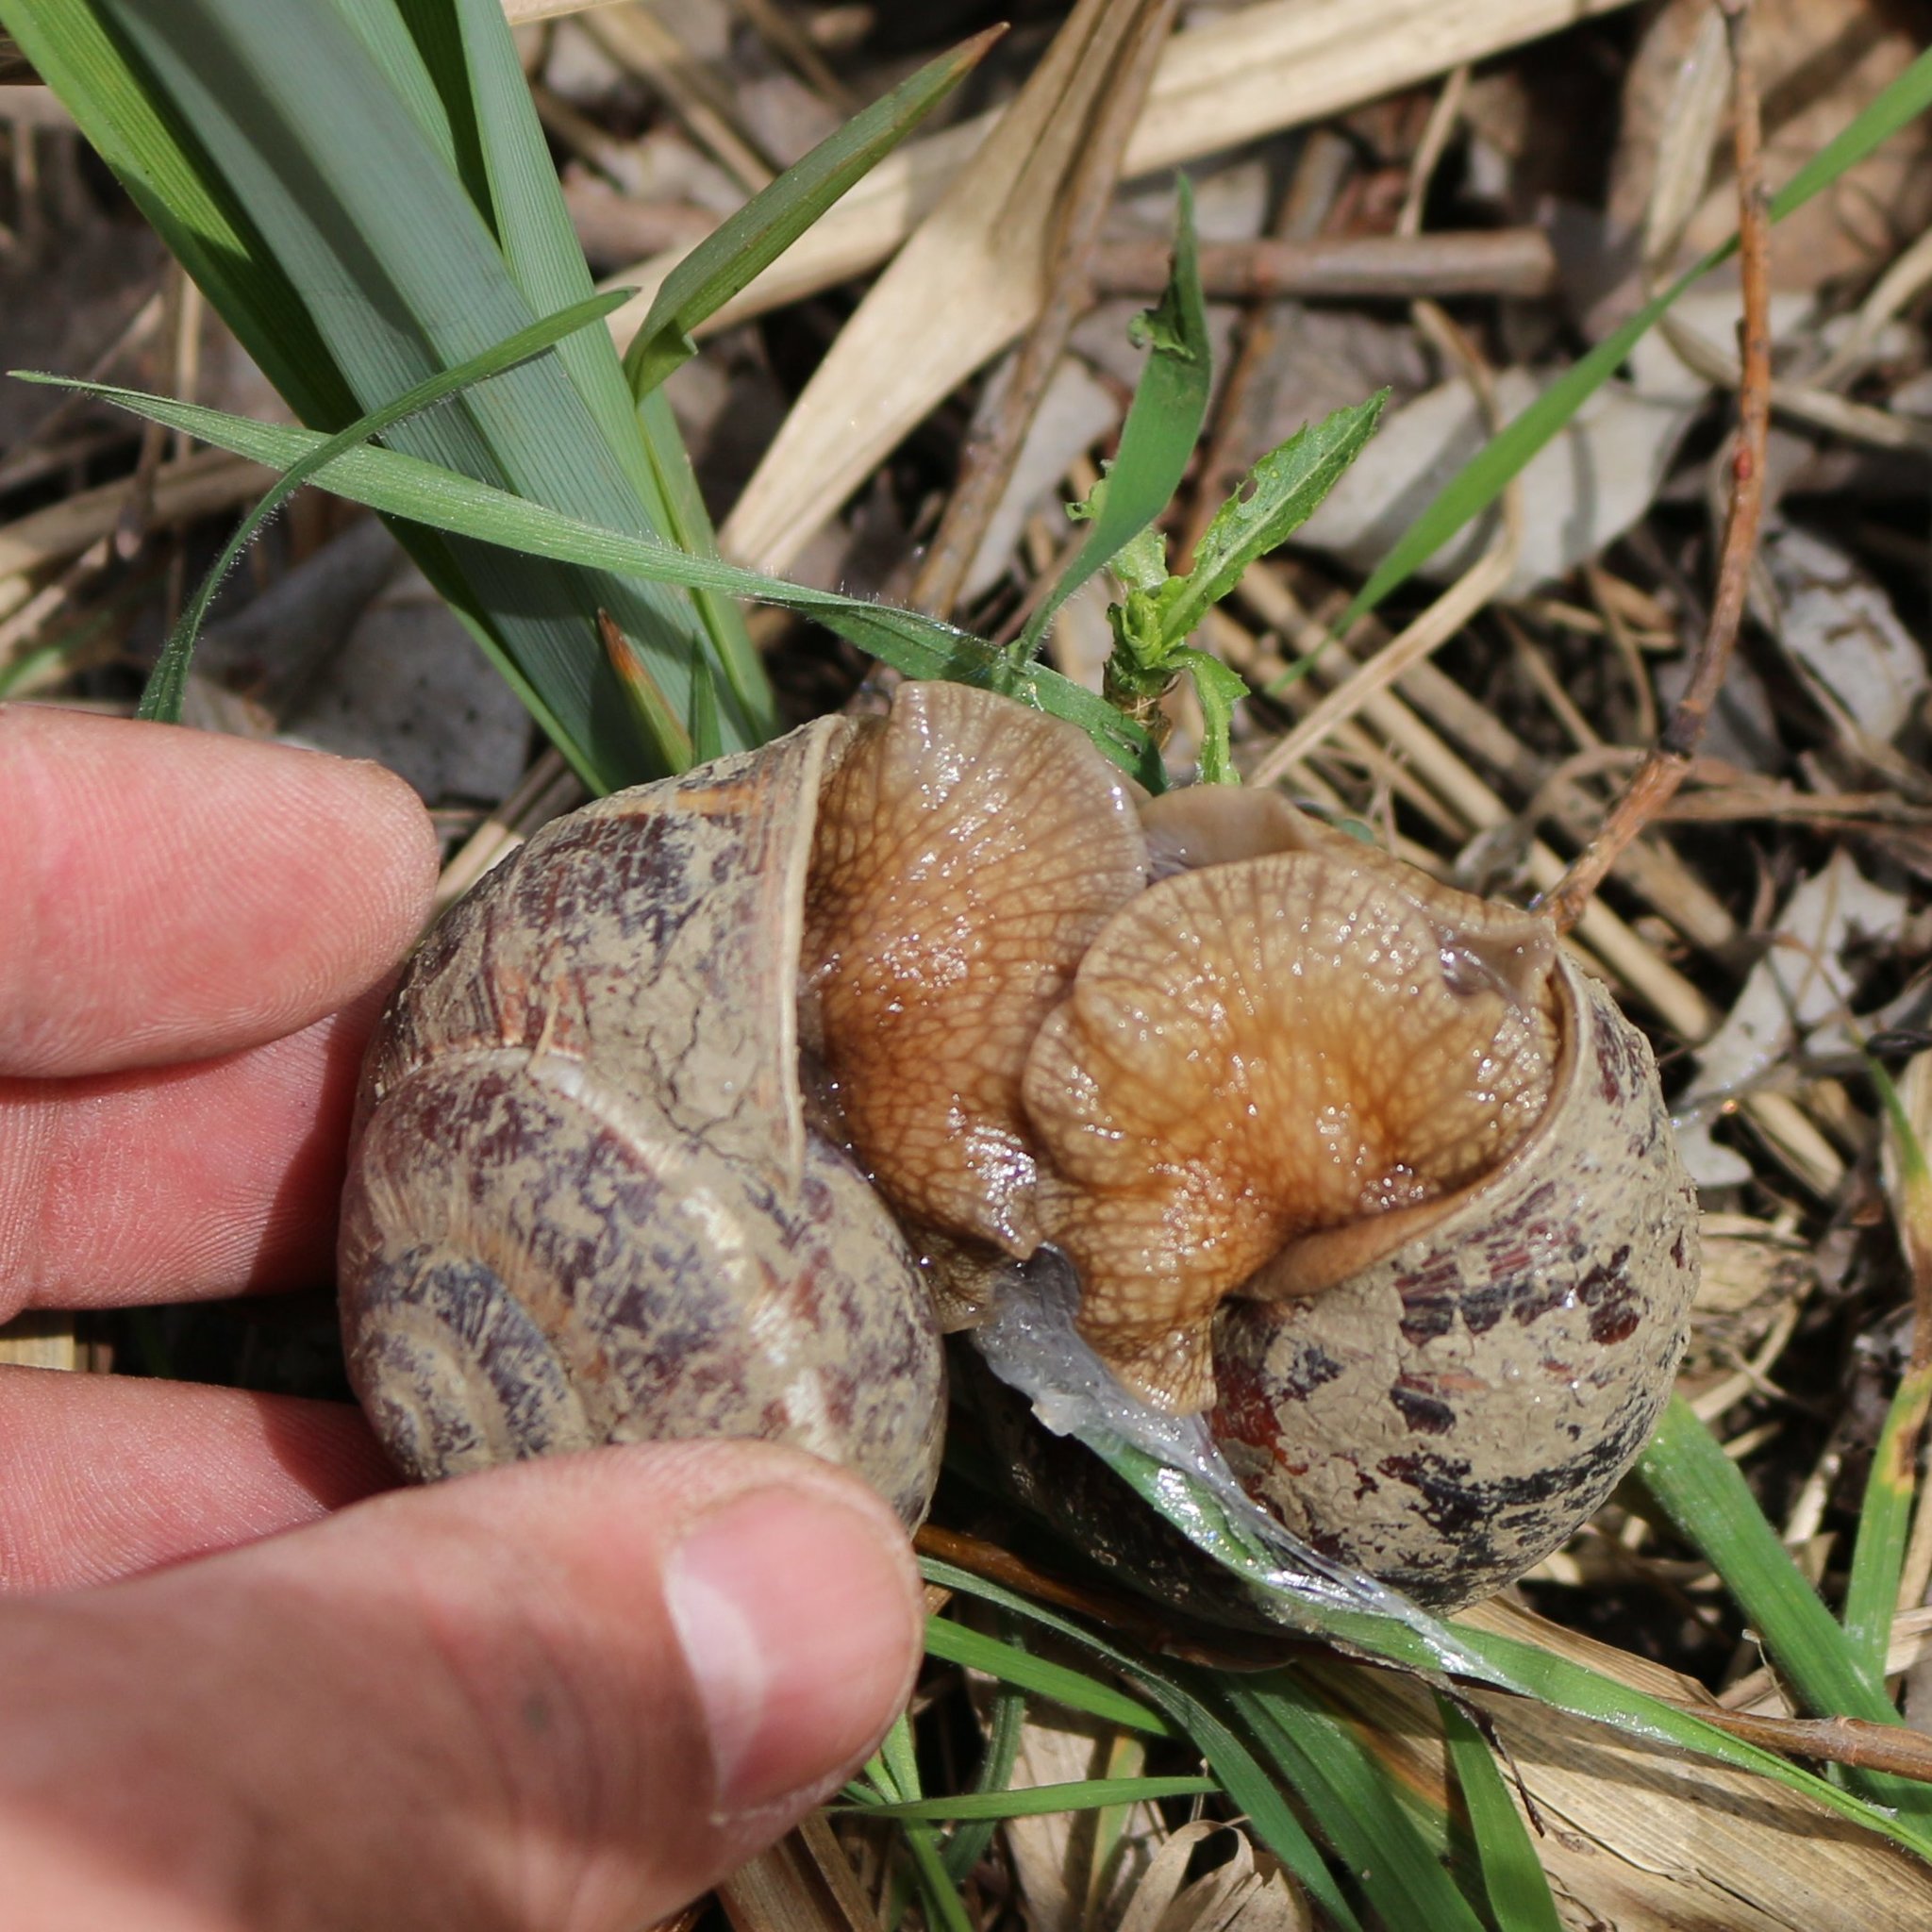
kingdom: Animalia
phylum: Mollusca
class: Gastropoda
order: Stylommatophora
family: Helicidae
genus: Helix
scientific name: Helix lucorum
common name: Turkish snail
